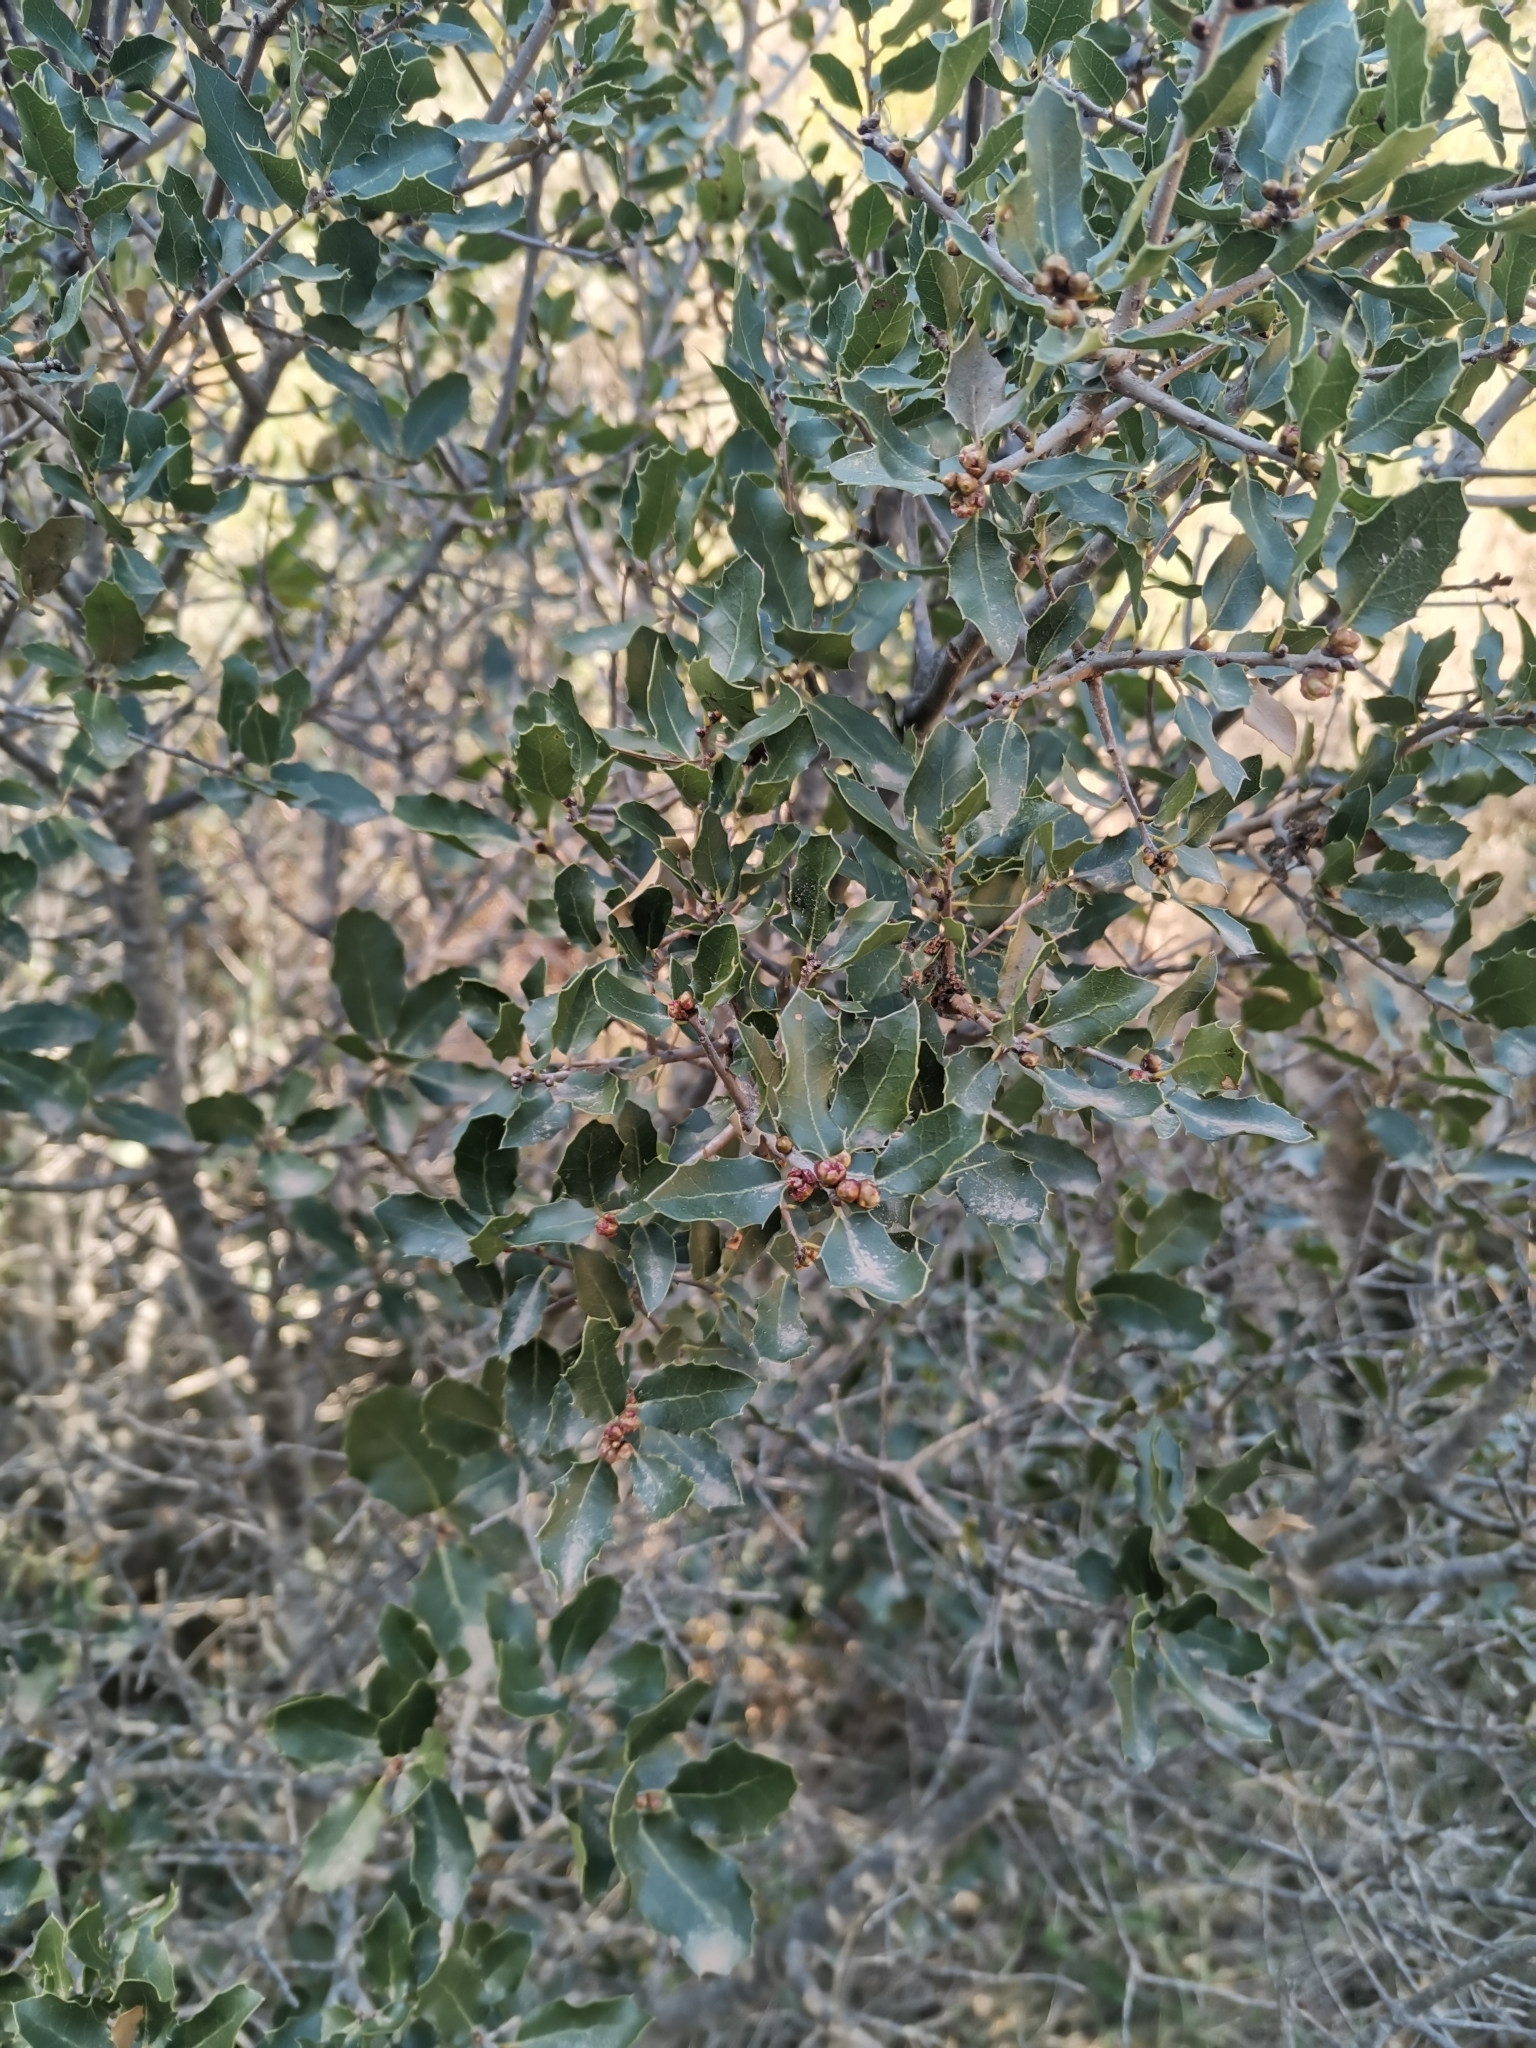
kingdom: Plantae
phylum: Tracheophyta
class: Magnoliopsida
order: Fagales
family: Fagaceae
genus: Quercus
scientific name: Quercus coccifera
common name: Kermes oak
